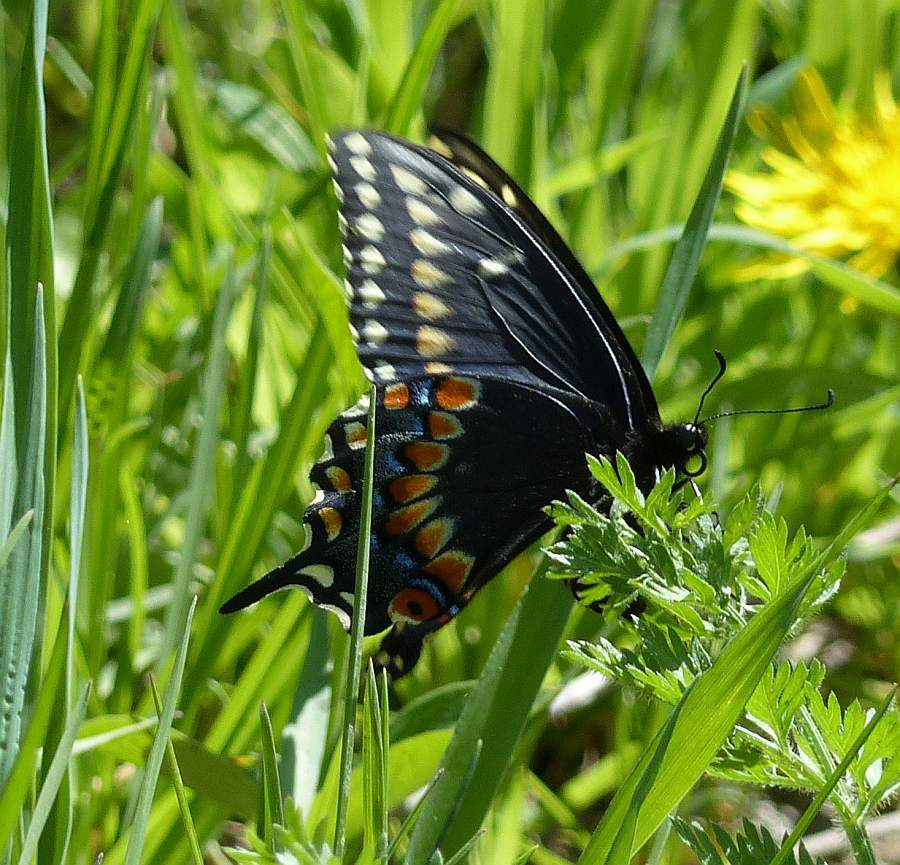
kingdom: Animalia
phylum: Arthropoda
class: Insecta
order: Lepidoptera
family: Papilionidae
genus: Papilio
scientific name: Papilio polyxenes
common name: Black swallowtail
